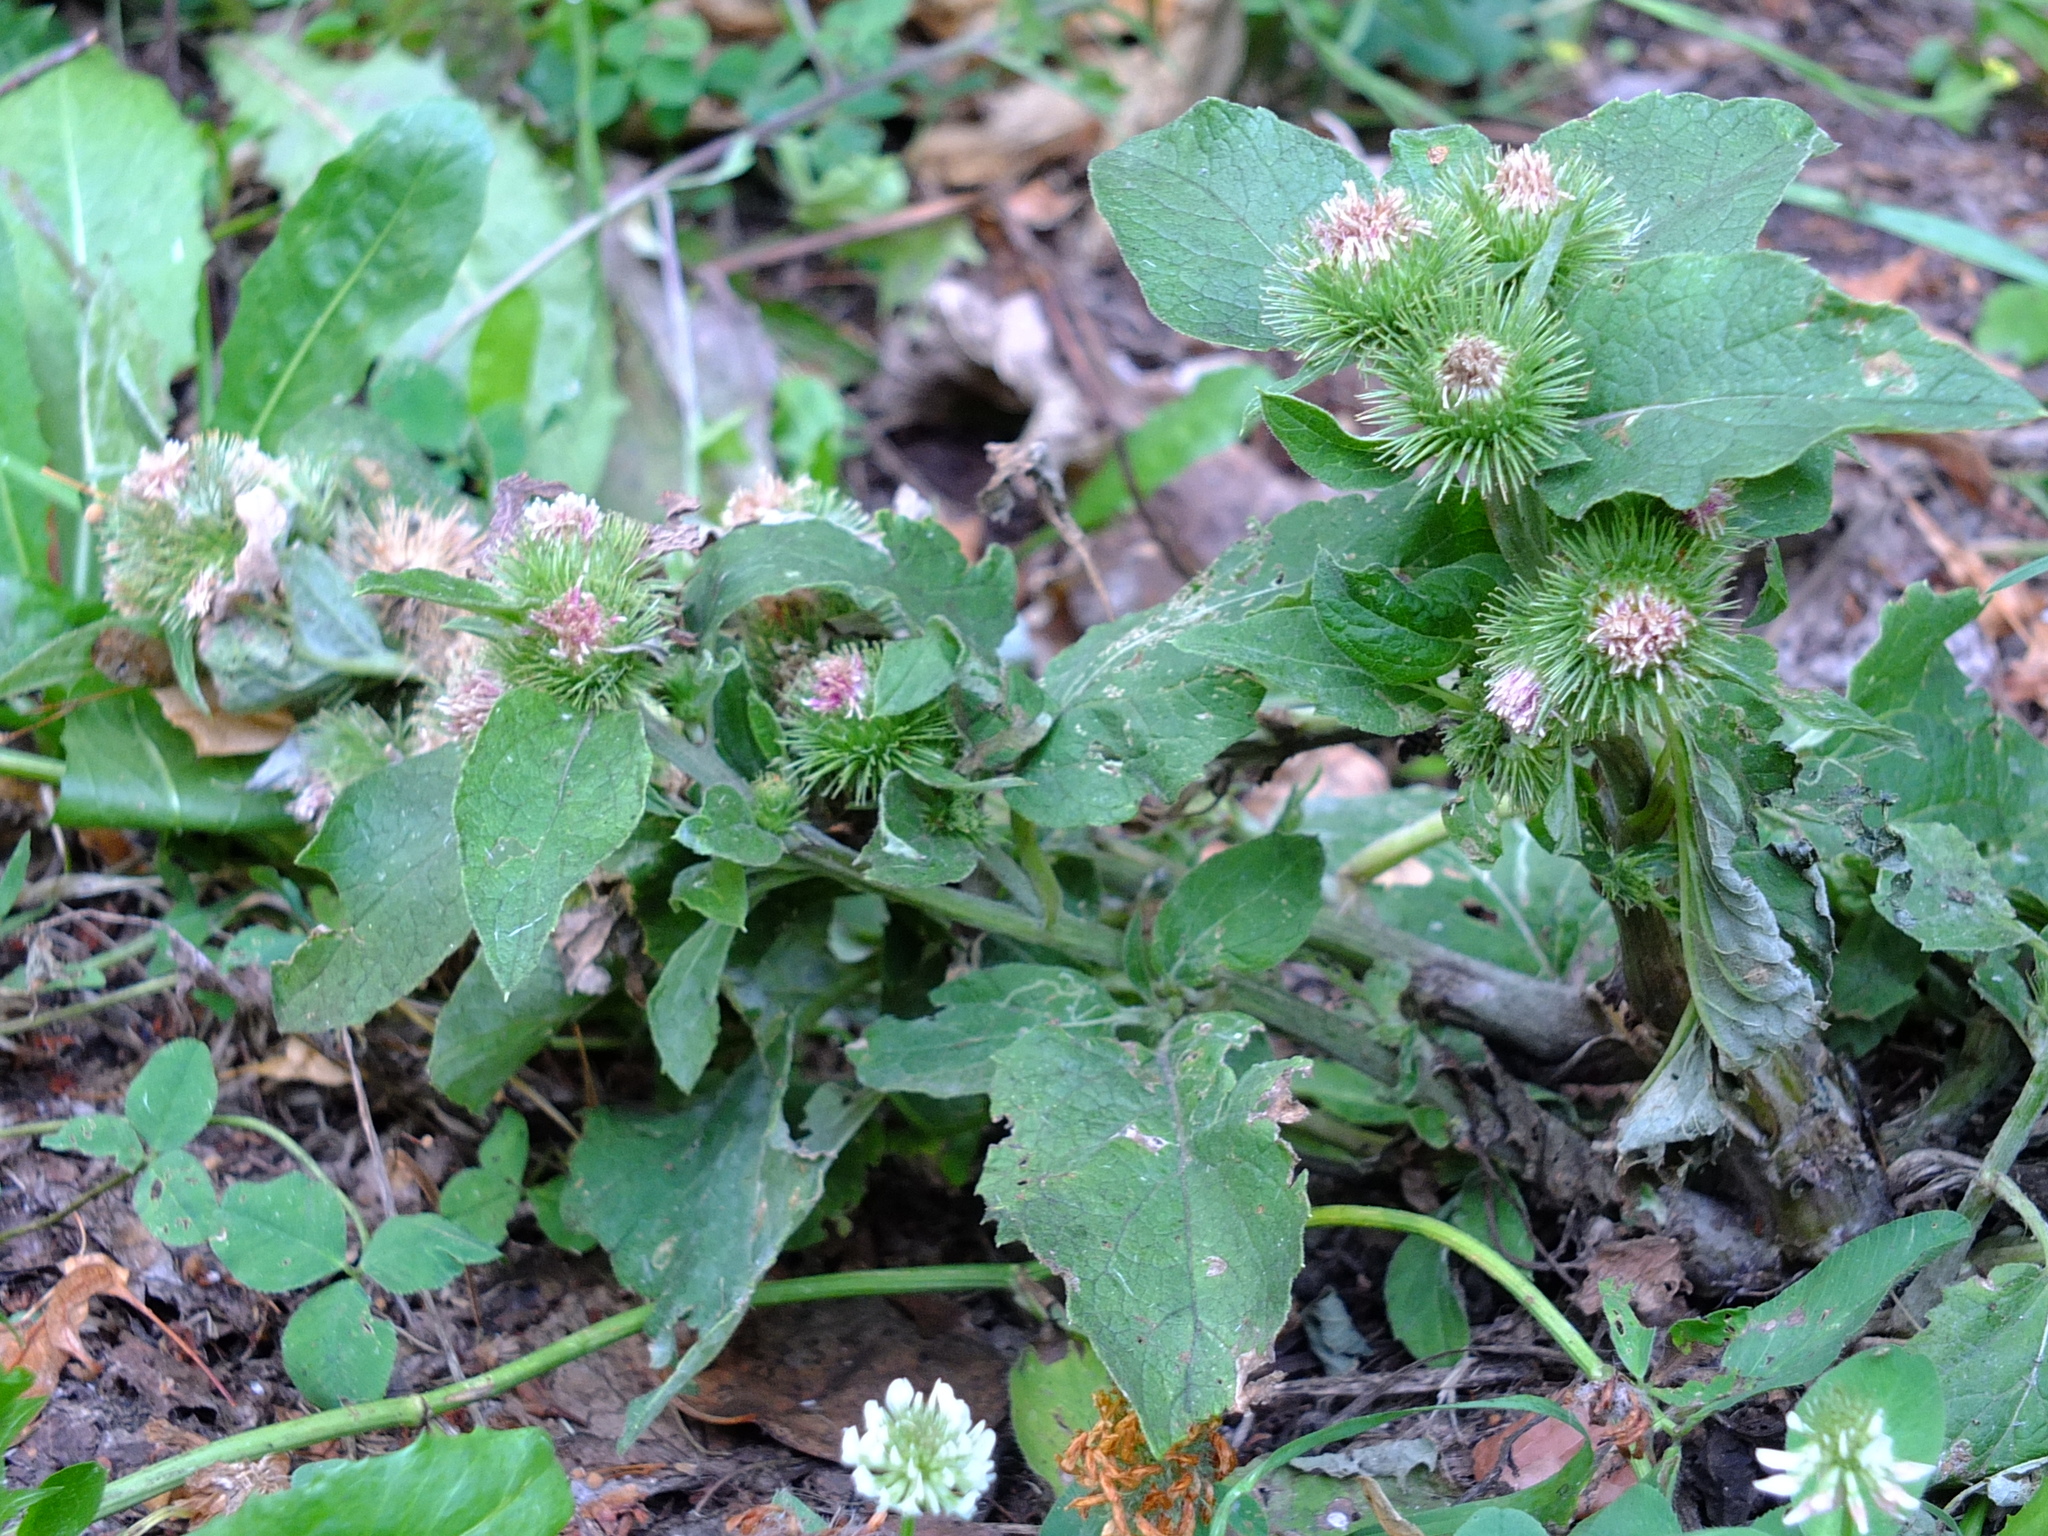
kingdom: Plantae
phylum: Tracheophyta
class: Magnoliopsida
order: Asterales
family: Asteraceae
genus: Arctium
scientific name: Arctium minus
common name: Lesser burdock
